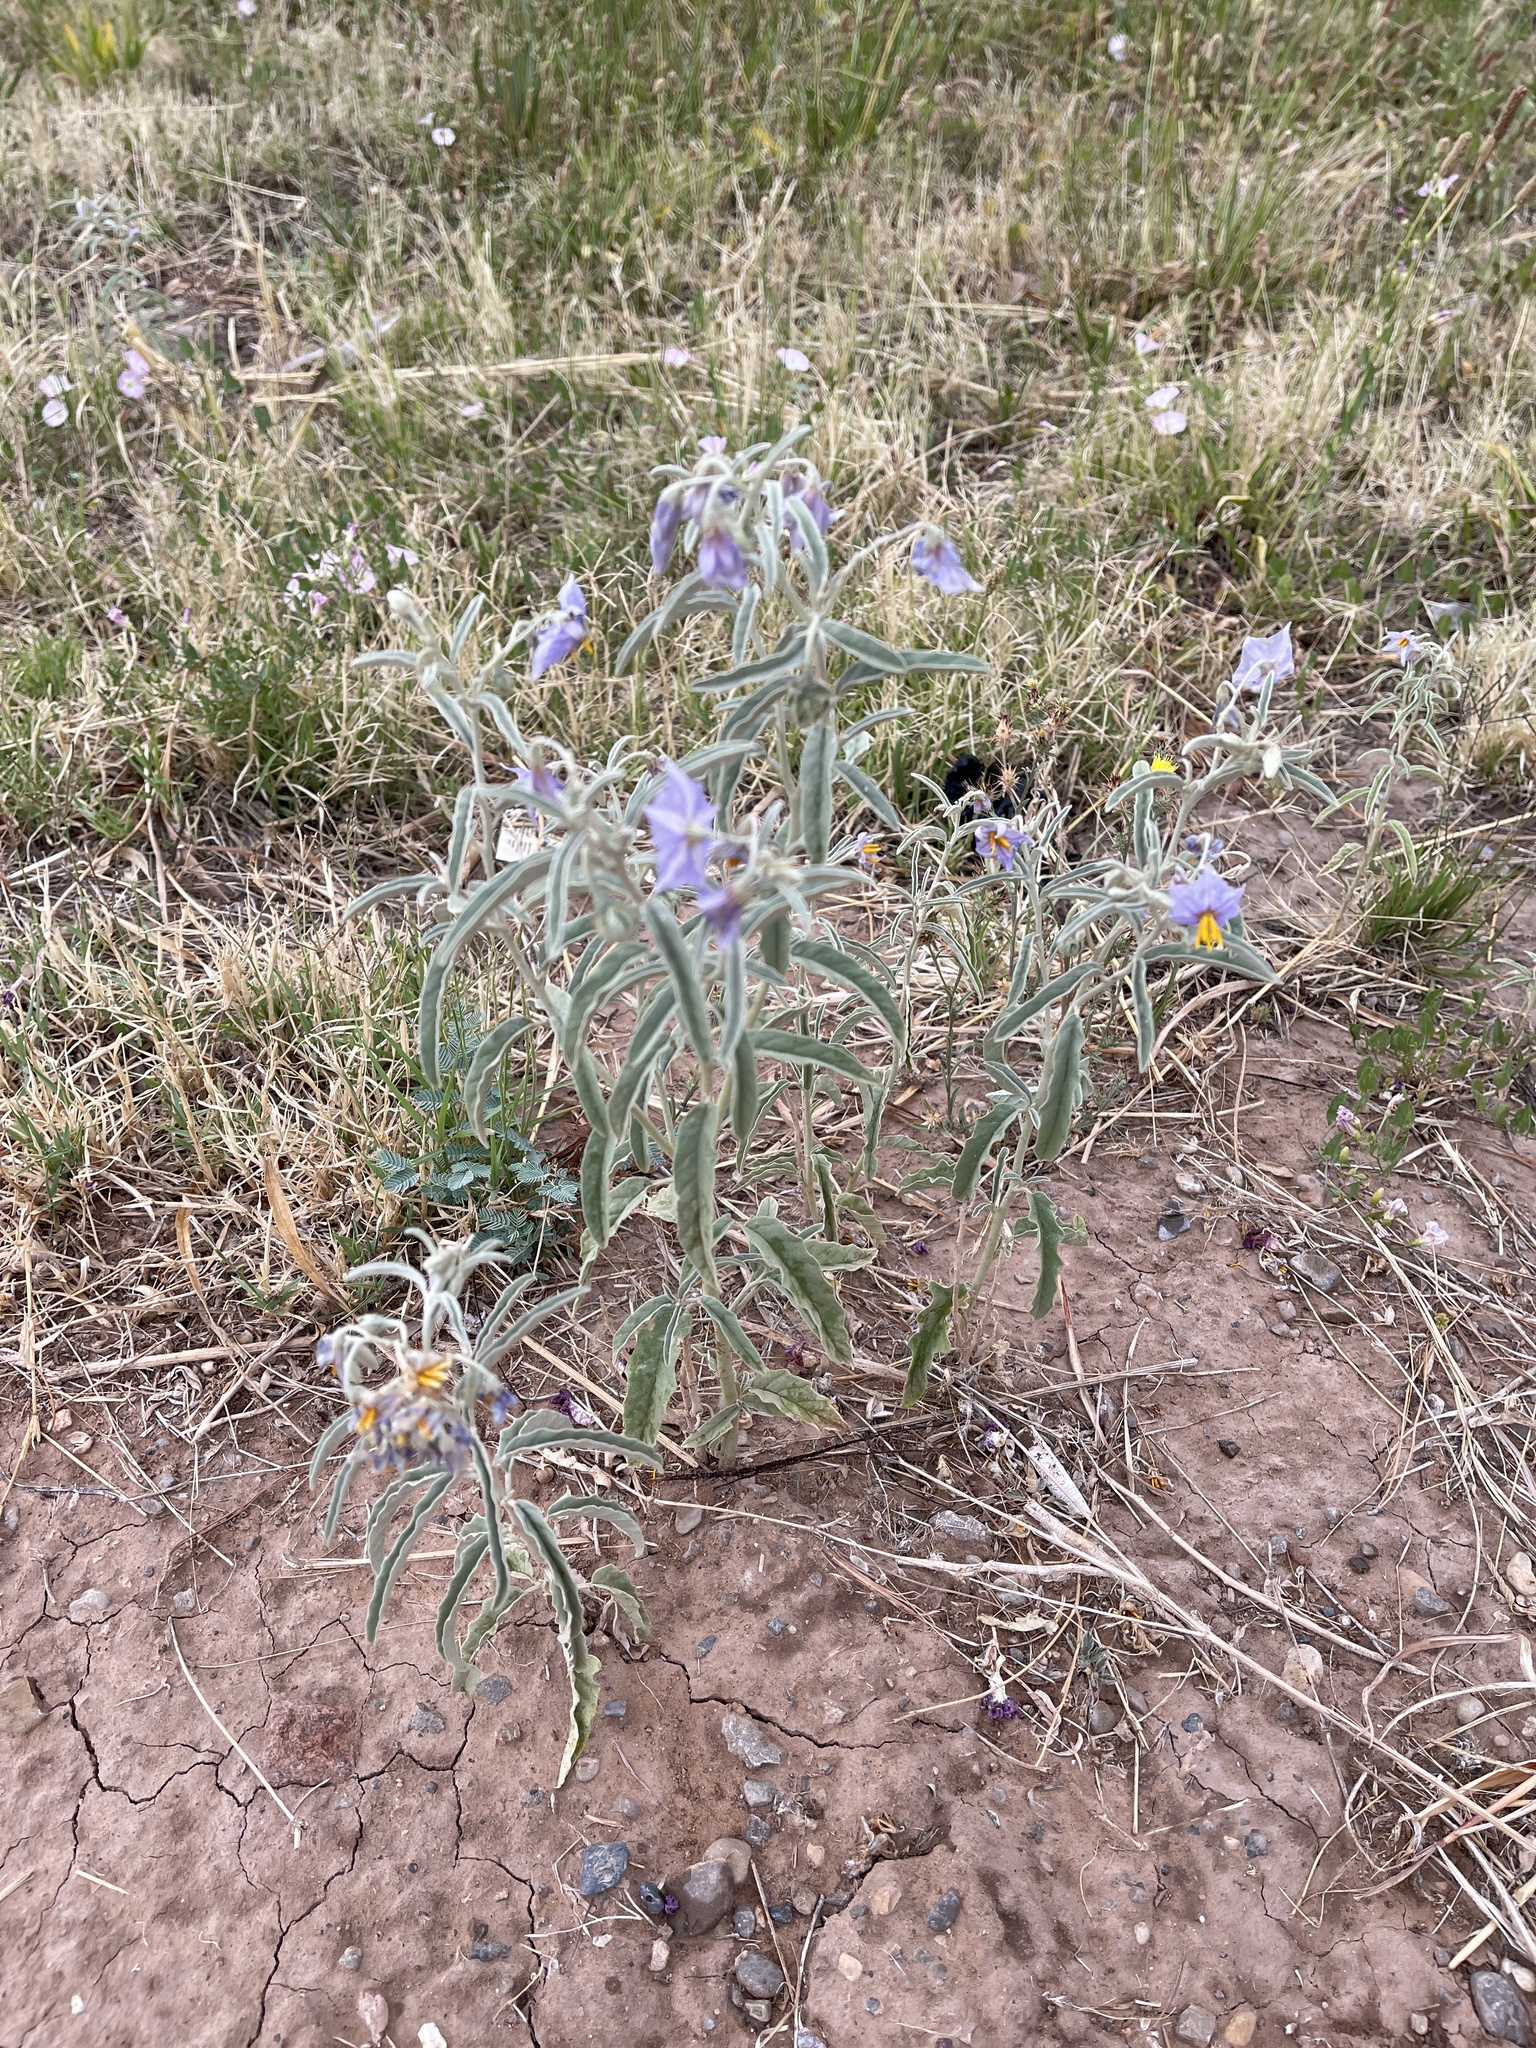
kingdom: Plantae
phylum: Tracheophyta
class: Magnoliopsida
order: Solanales
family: Solanaceae
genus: Solanum
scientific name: Solanum elaeagnifolium
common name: Silverleaf nightshade
